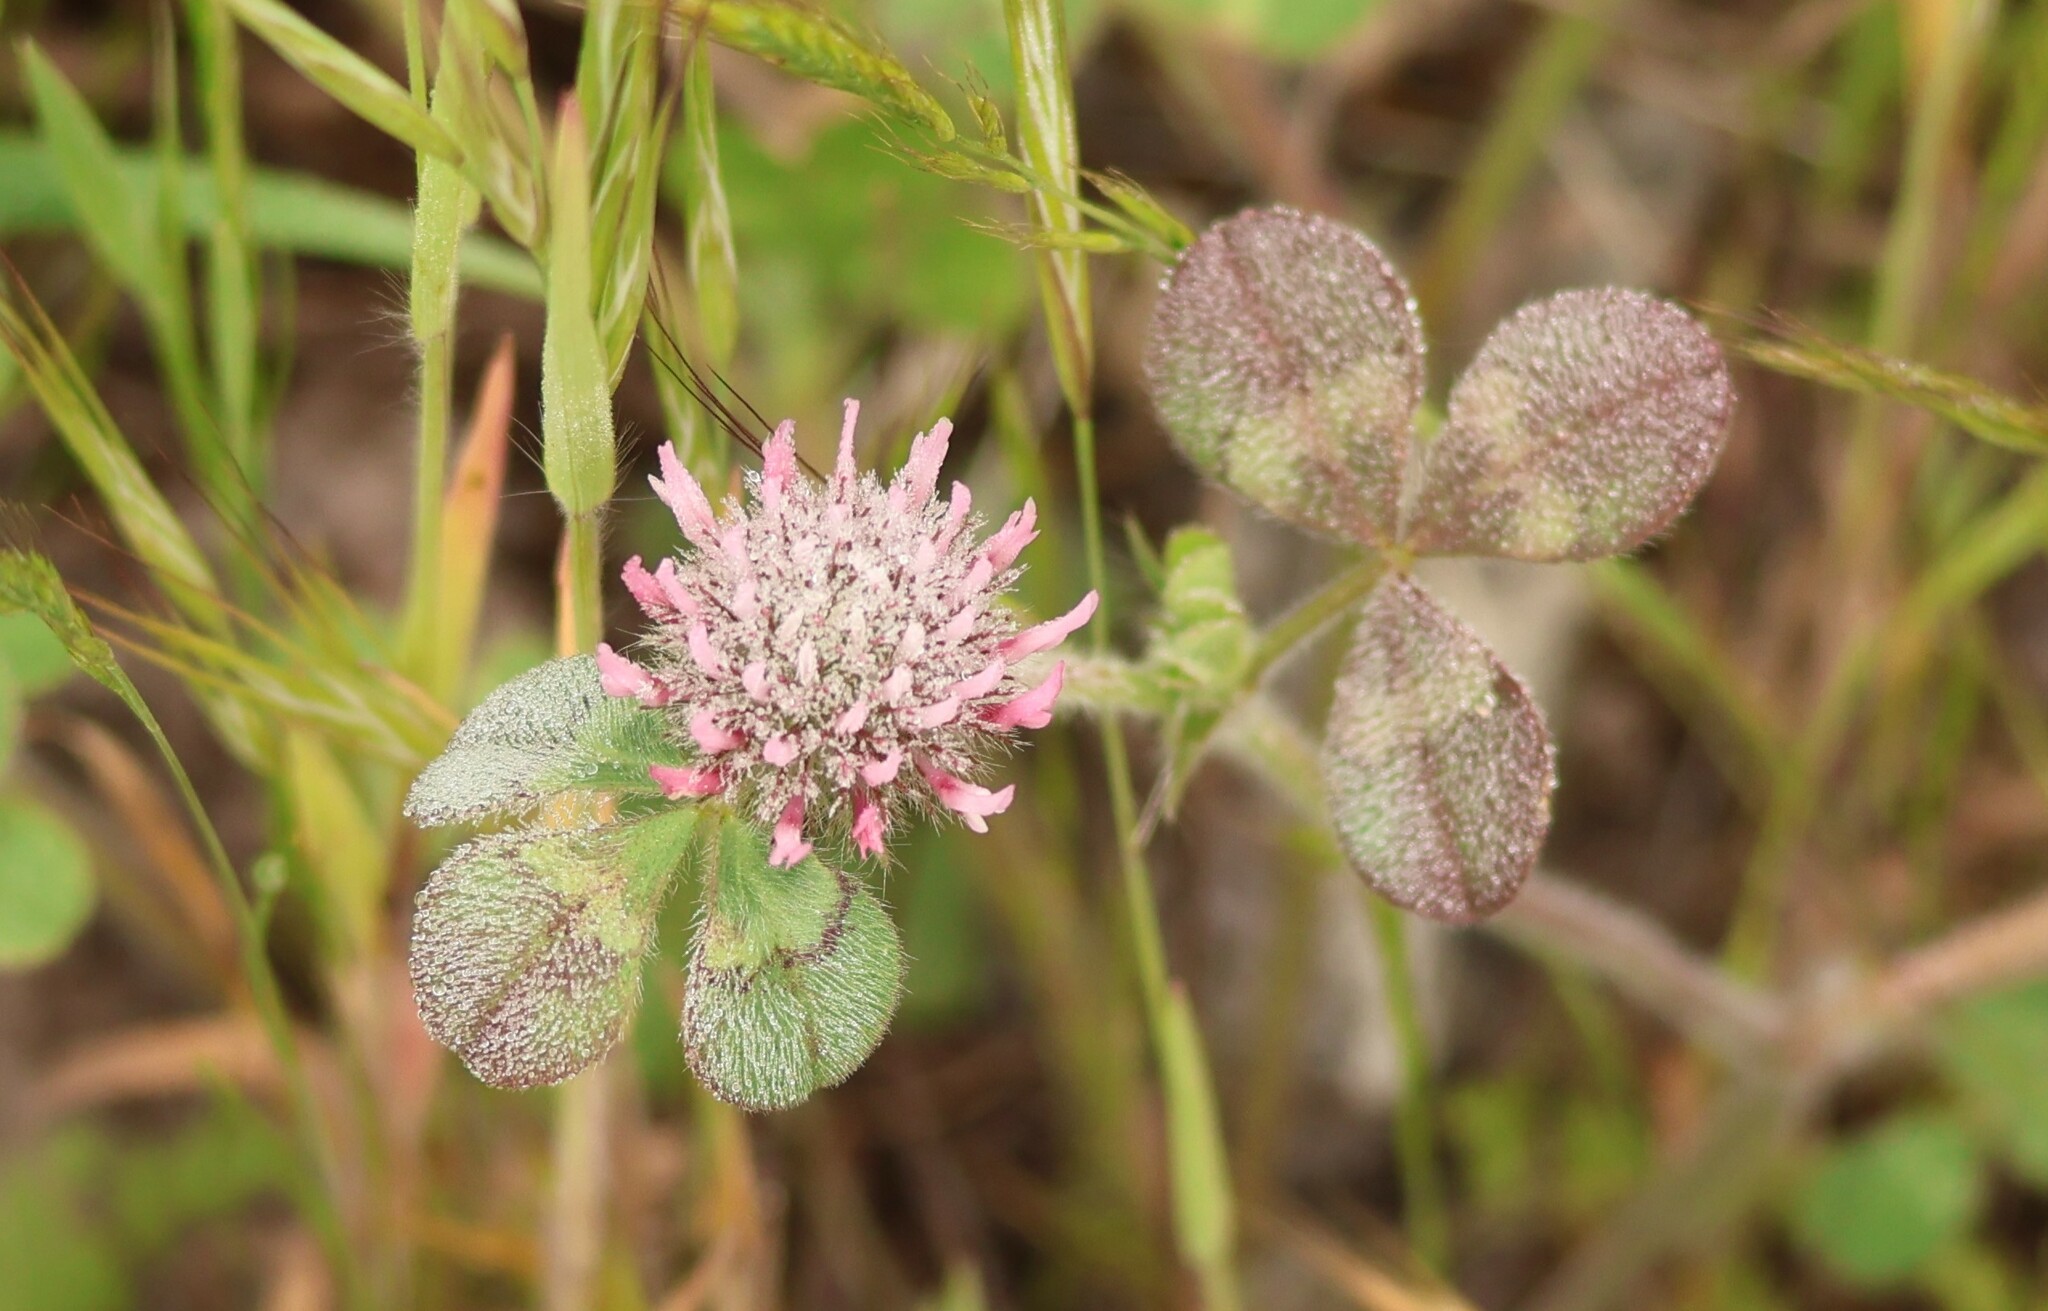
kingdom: Plantae
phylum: Tracheophyta
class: Magnoliopsida
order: Fabales
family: Fabaceae
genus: Trifolium
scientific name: Trifolium hirtum
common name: Rose clover
